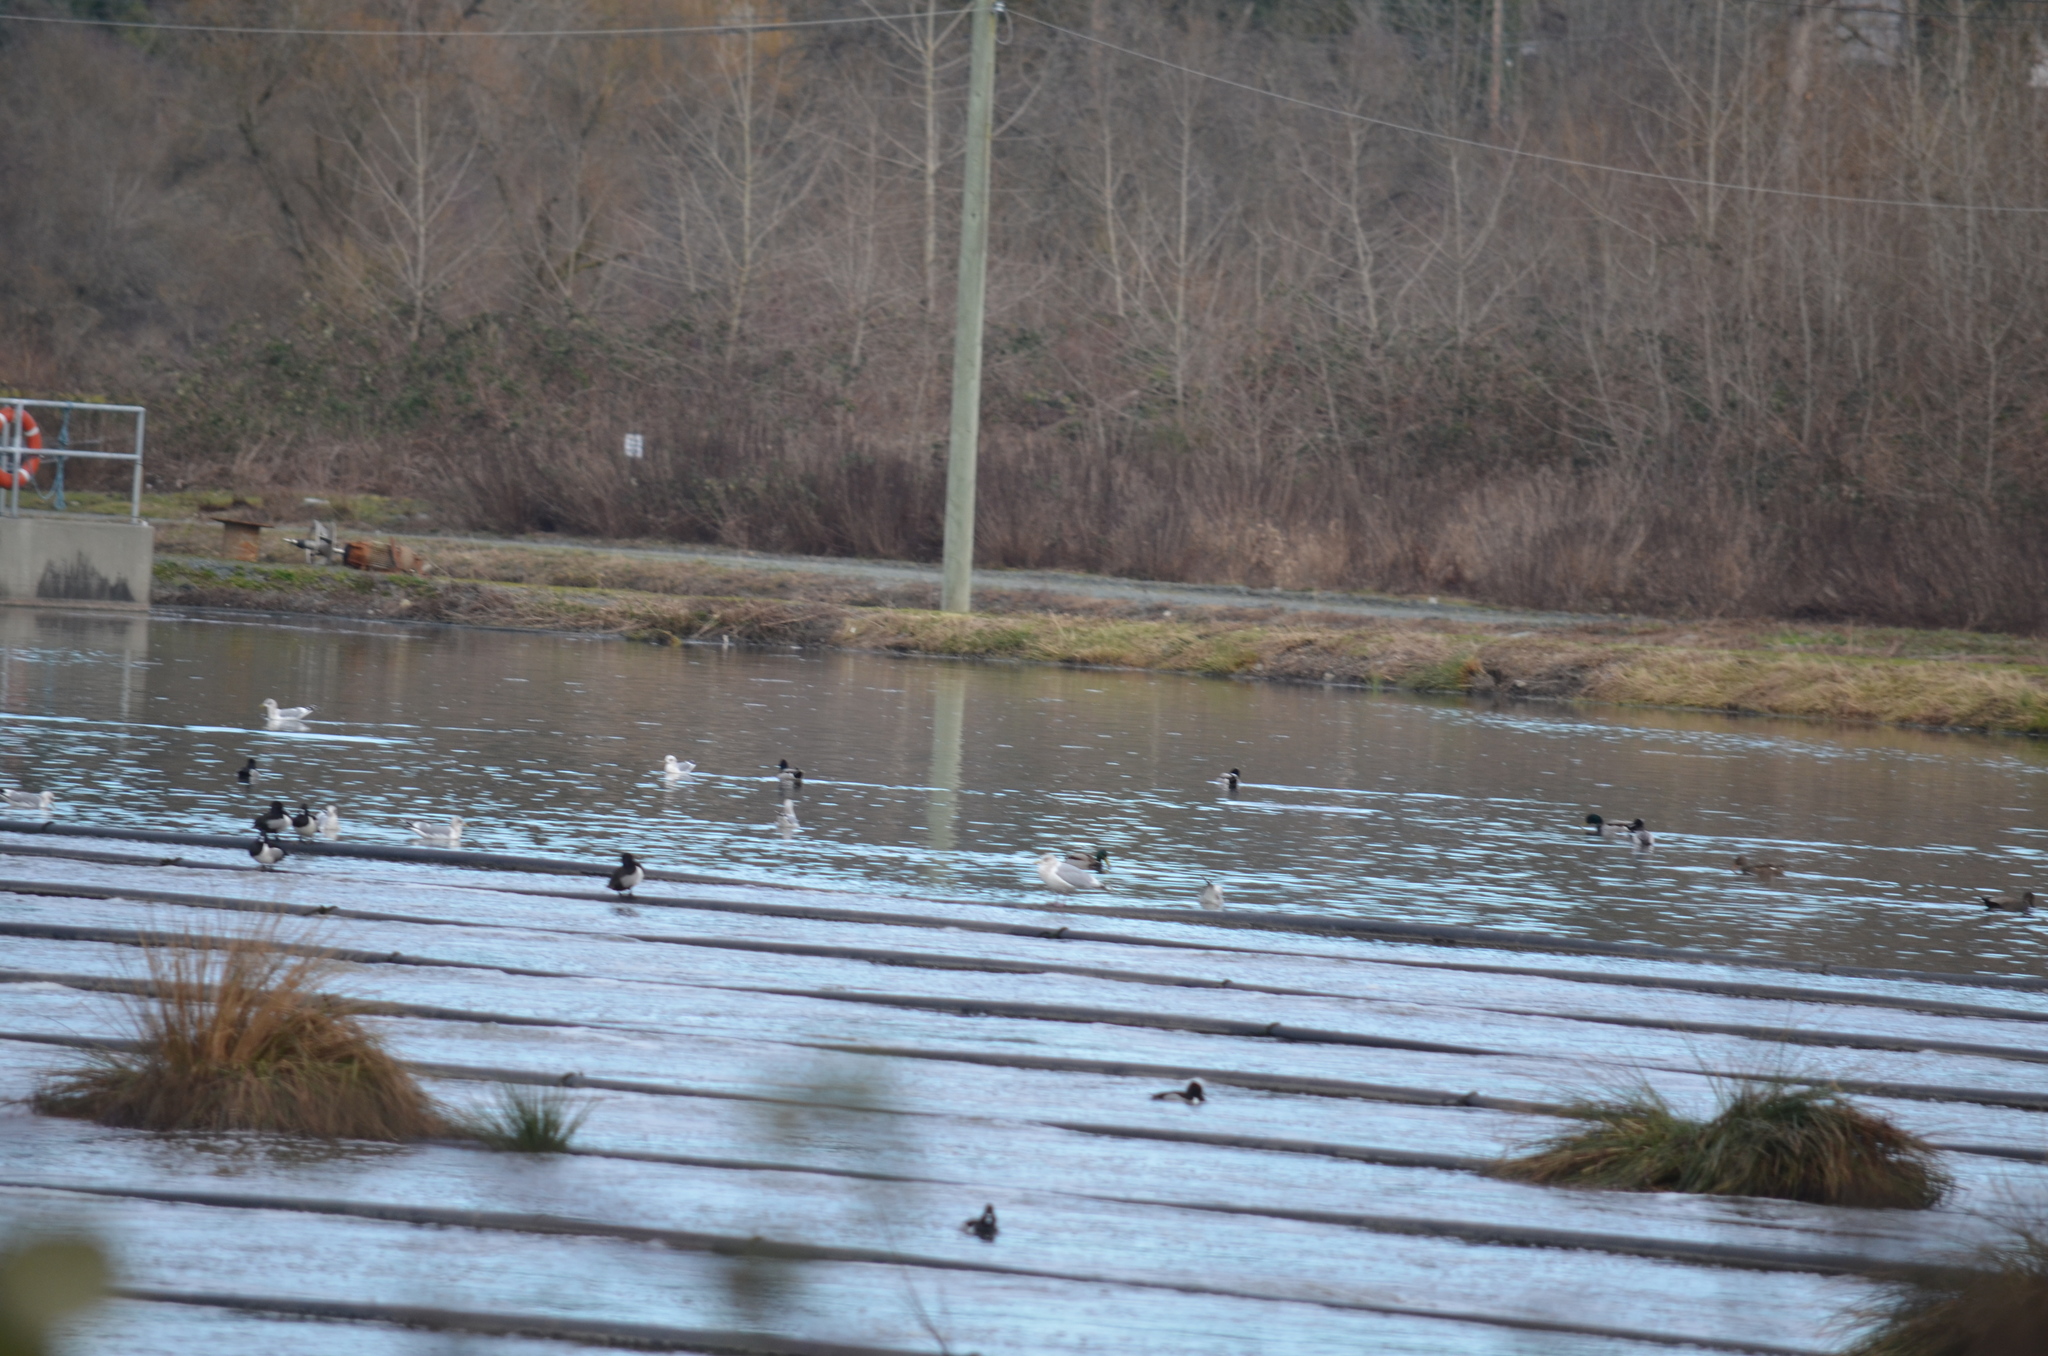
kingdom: Animalia
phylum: Chordata
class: Aves
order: Anseriformes
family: Anatidae
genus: Anas
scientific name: Anas platyrhynchos
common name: Mallard
